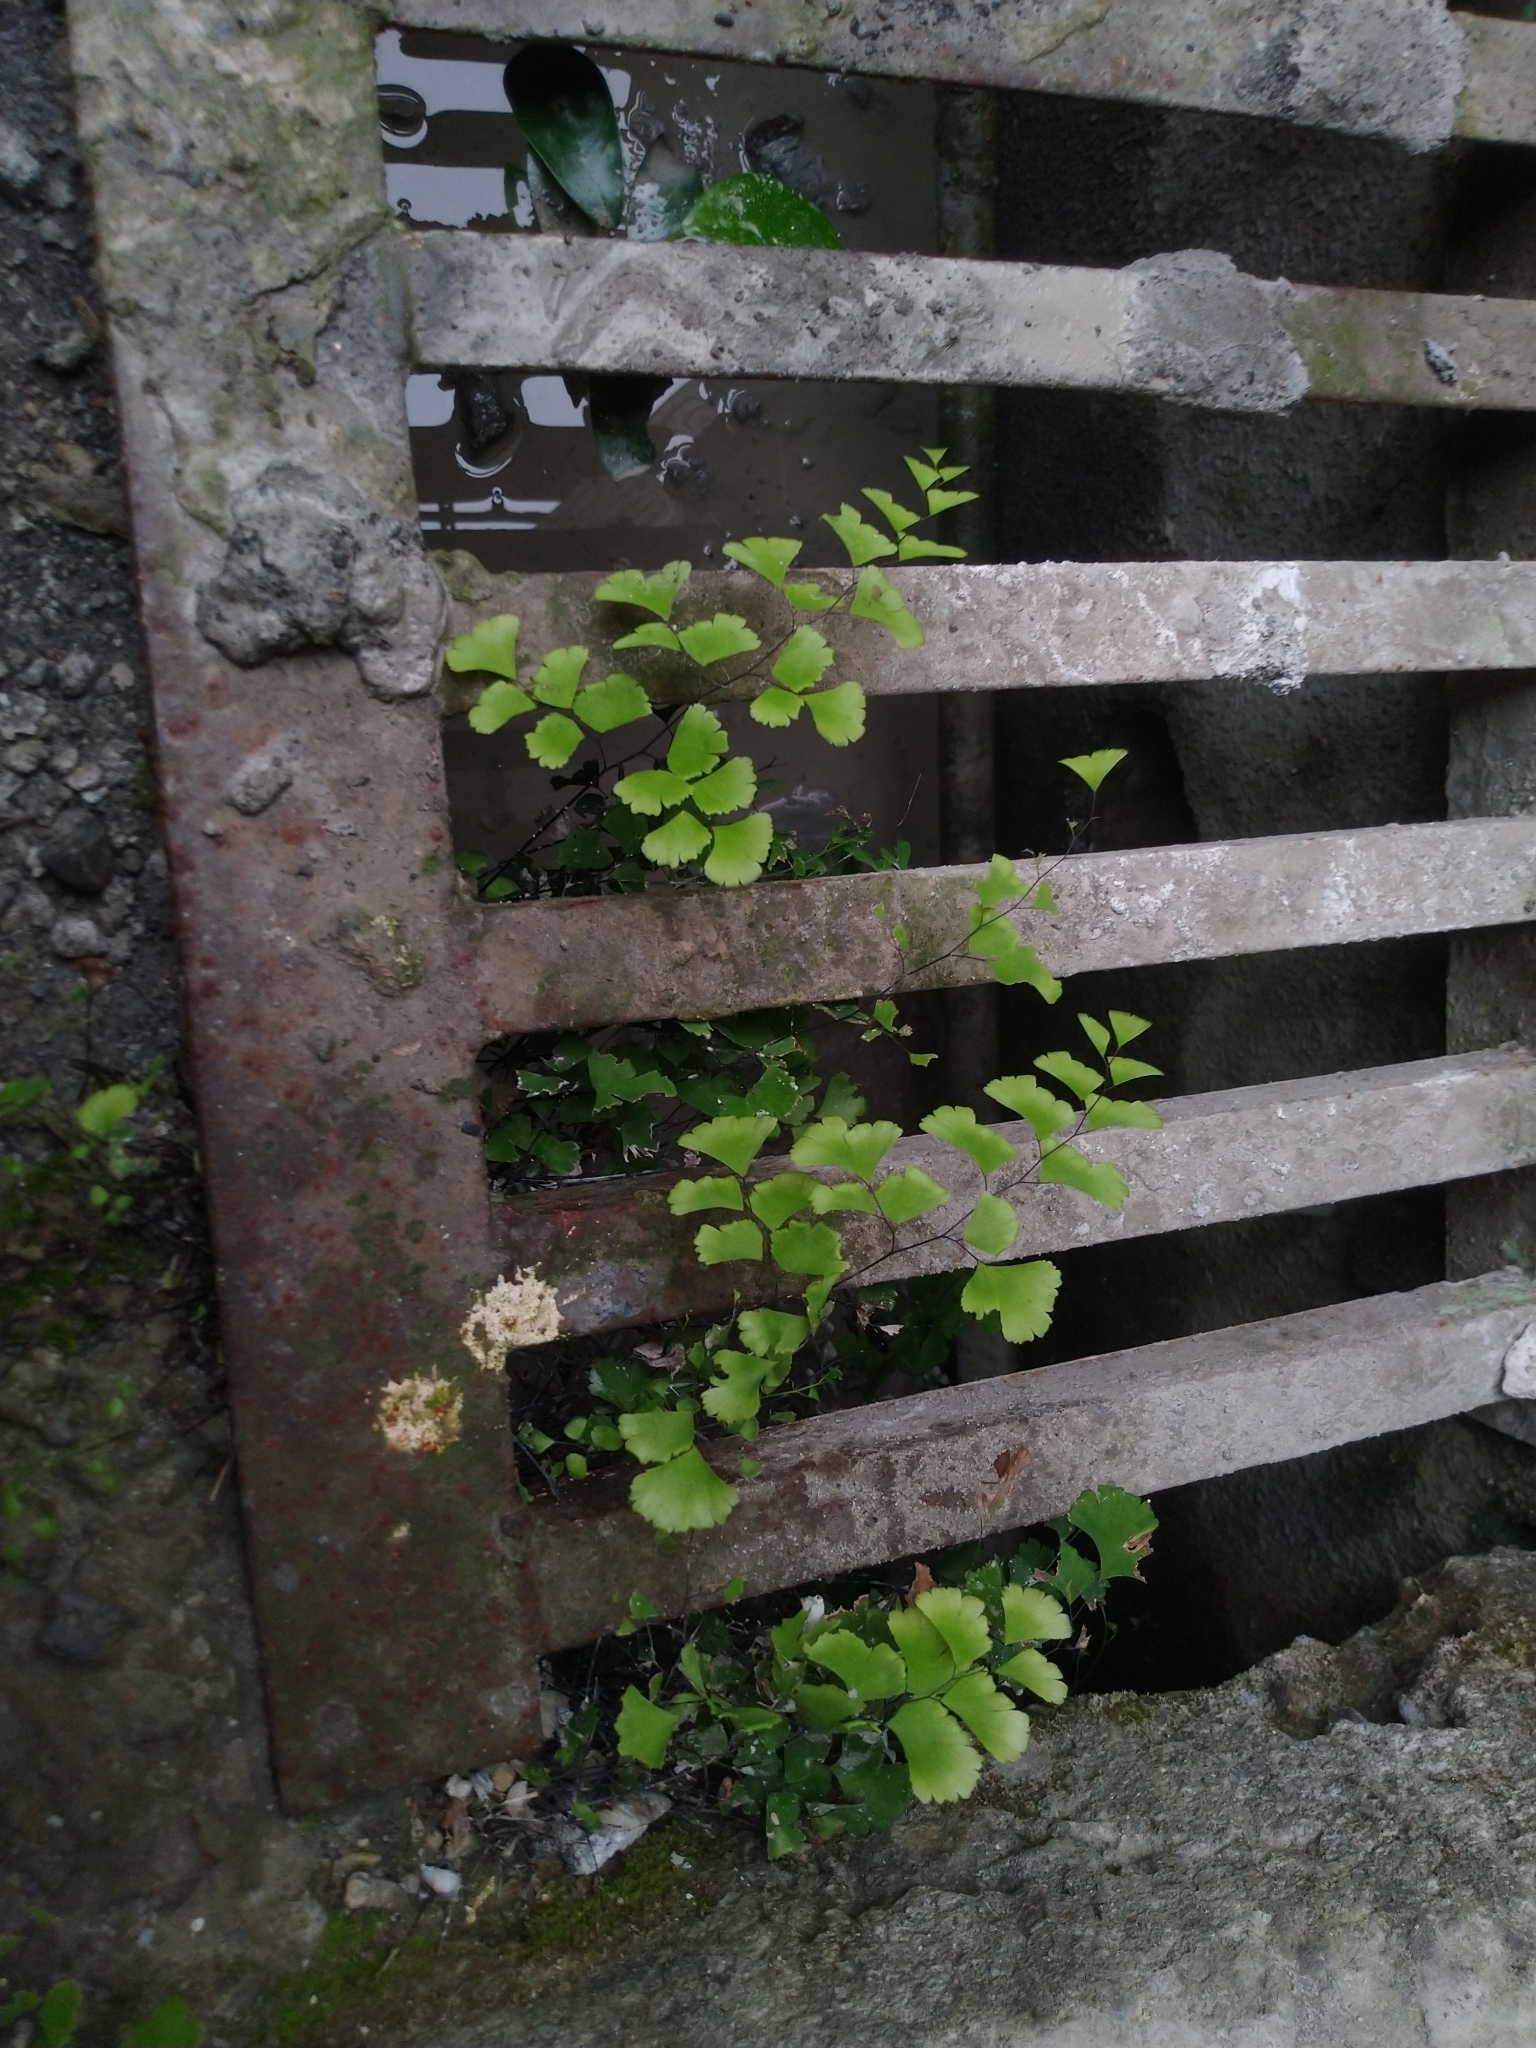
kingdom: Plantae
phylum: Tracheophyta
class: Polypodiopsida
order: Polypodiales
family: Pteridaceae
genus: Adiantum
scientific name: Adiantum capillus-veneris
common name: Maidenhair fern
